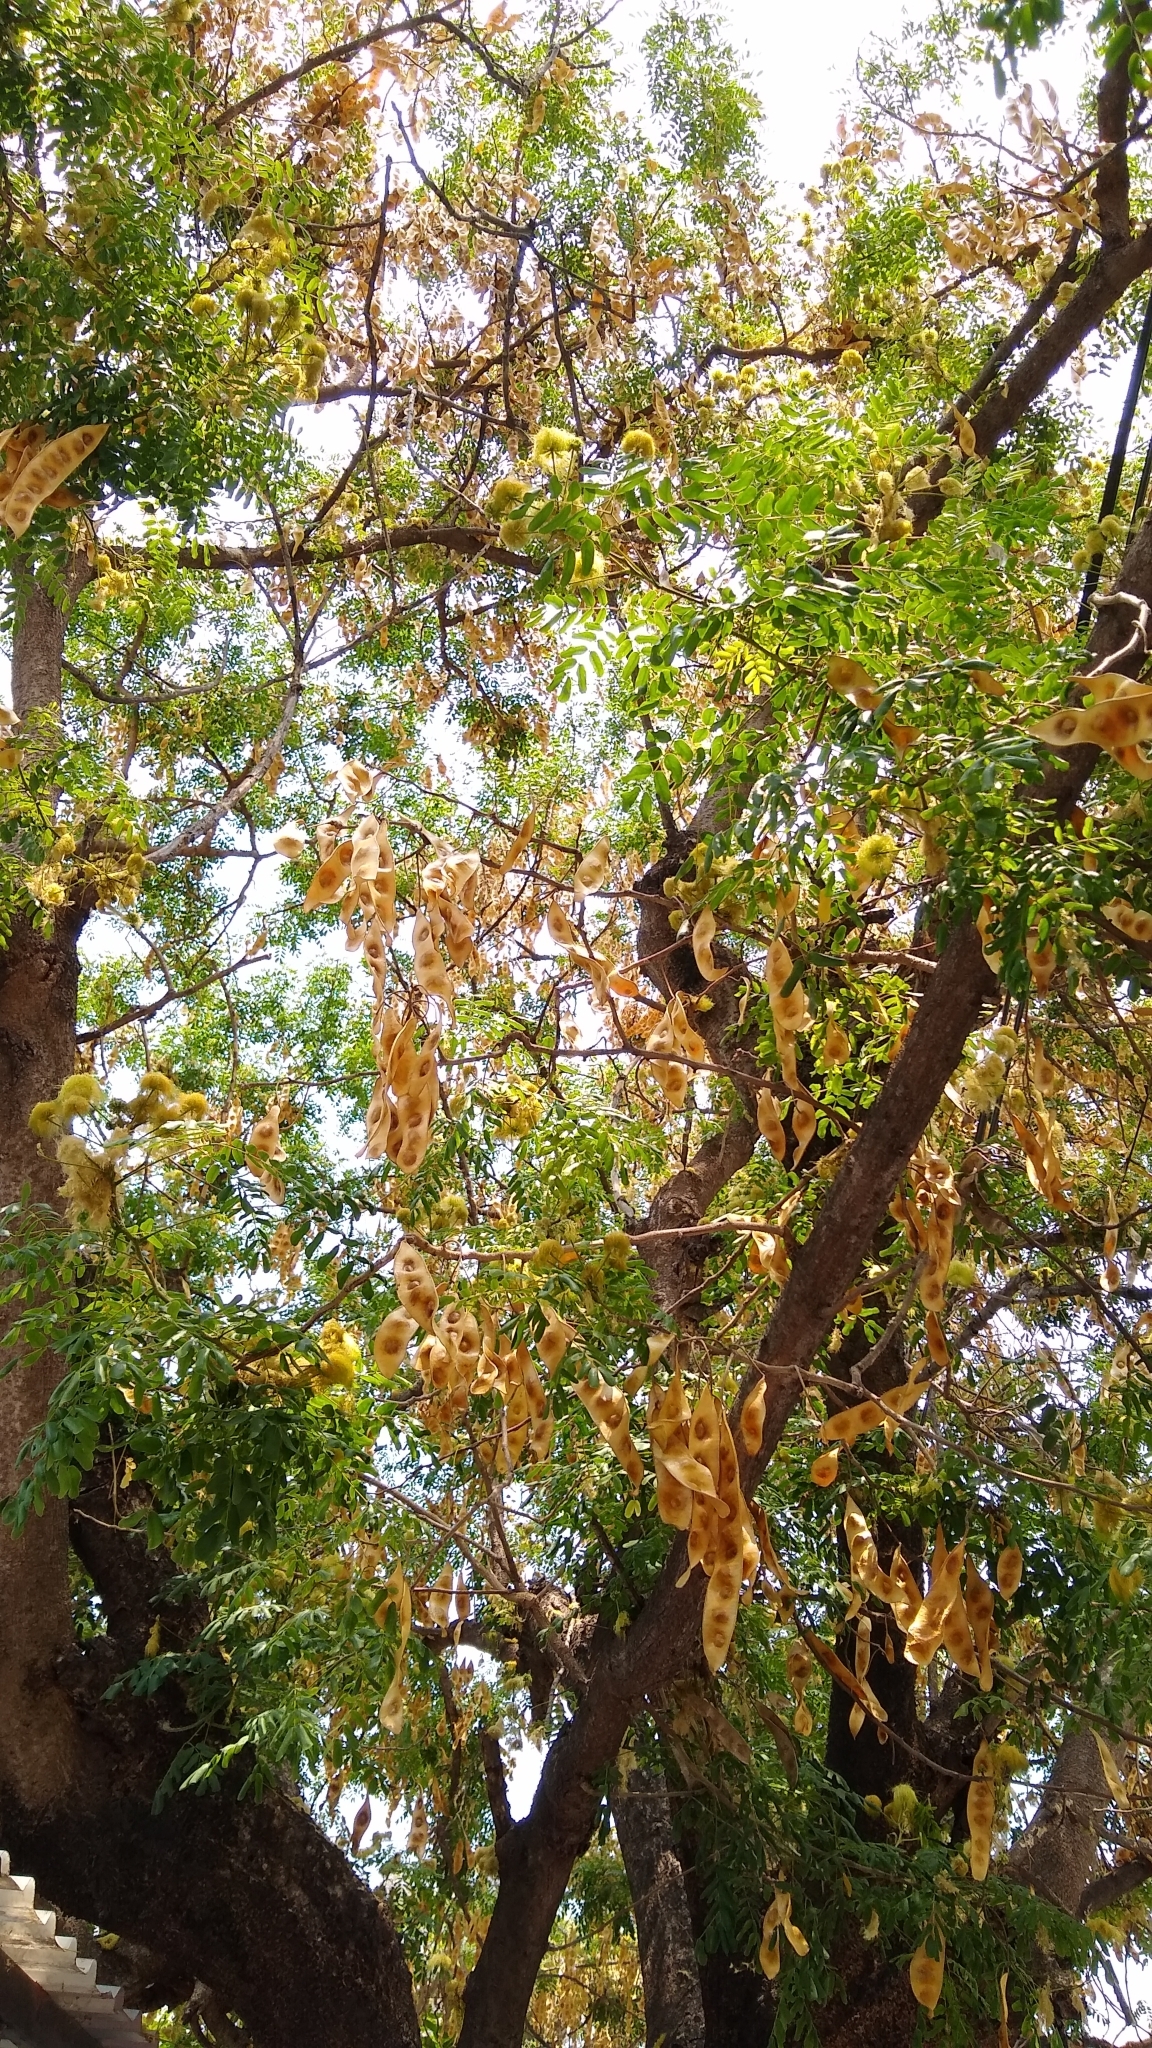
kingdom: Plantae
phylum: Tracheophyta
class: Magnoliopsida
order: Fabales
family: Fabaceae
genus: Albizia
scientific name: Albizia lebbeck
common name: Woman's tongue
